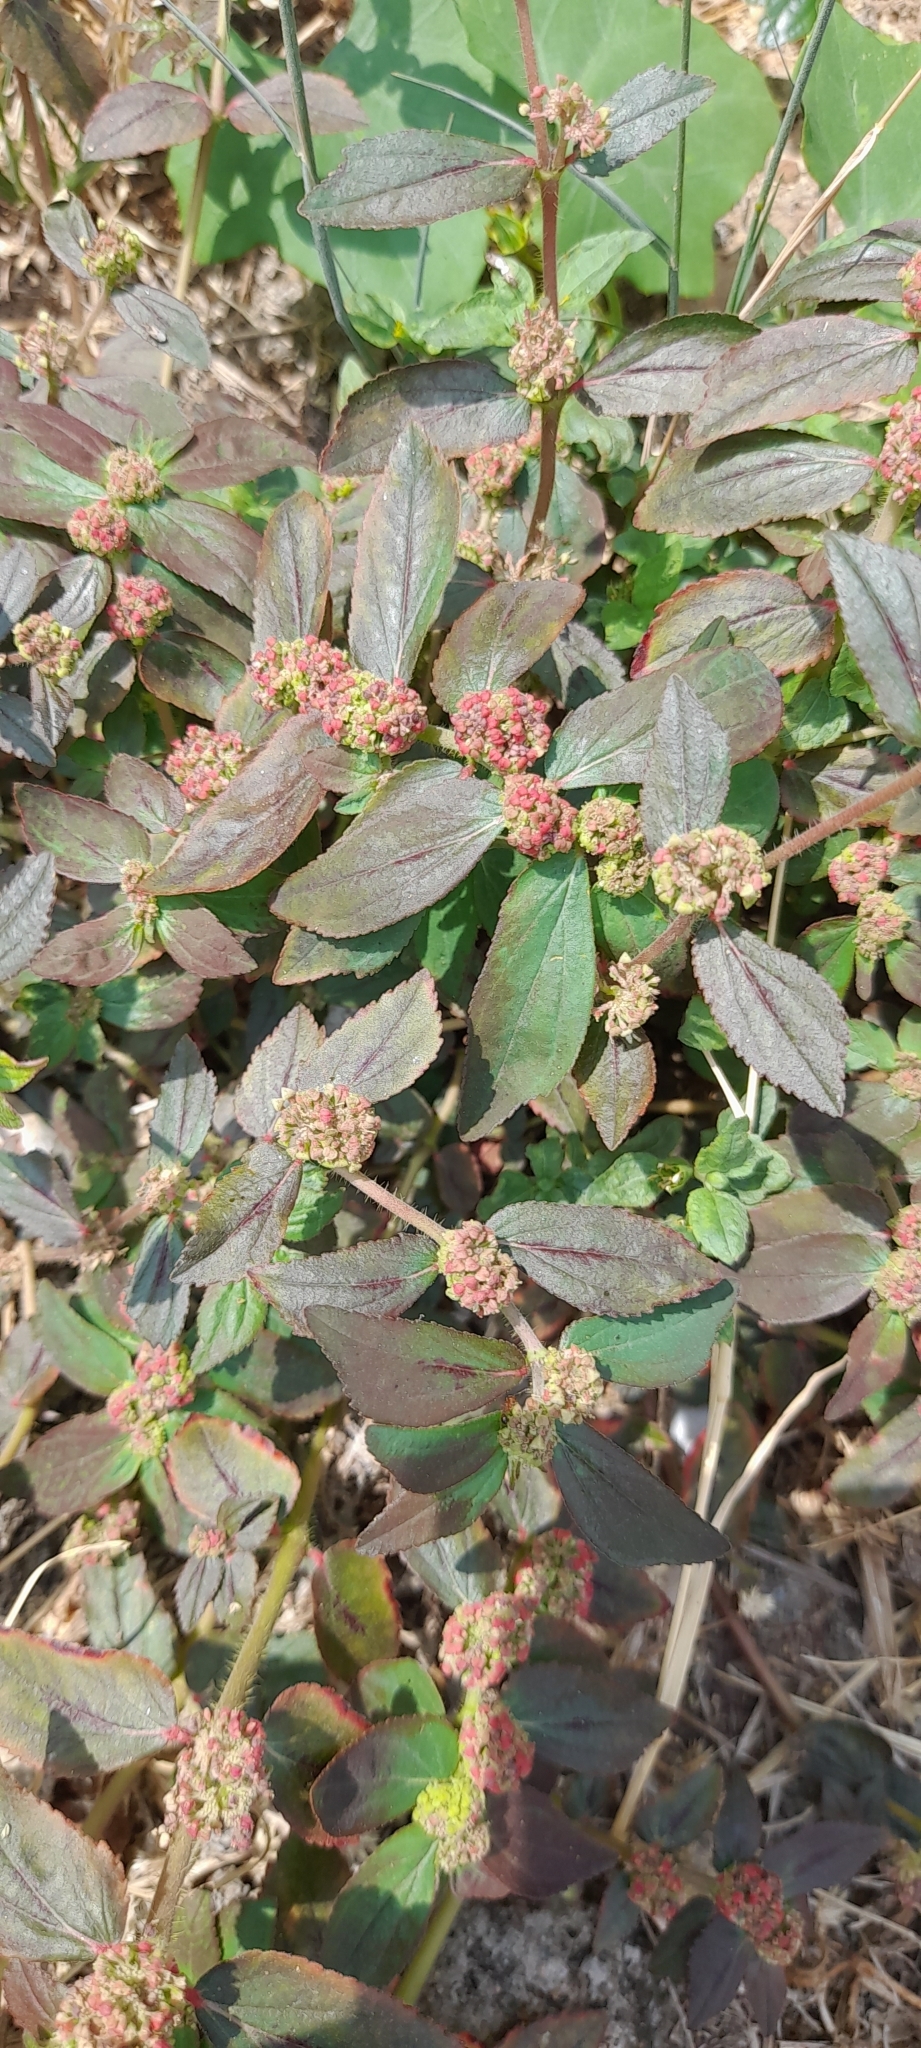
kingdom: Plantae
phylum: Tracheophyta
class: Magnoliopsida
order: Malpighiales
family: Euphorbiaceae
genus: Euphorbia
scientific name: Euphorbia hirta
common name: Pillpod sandmat
